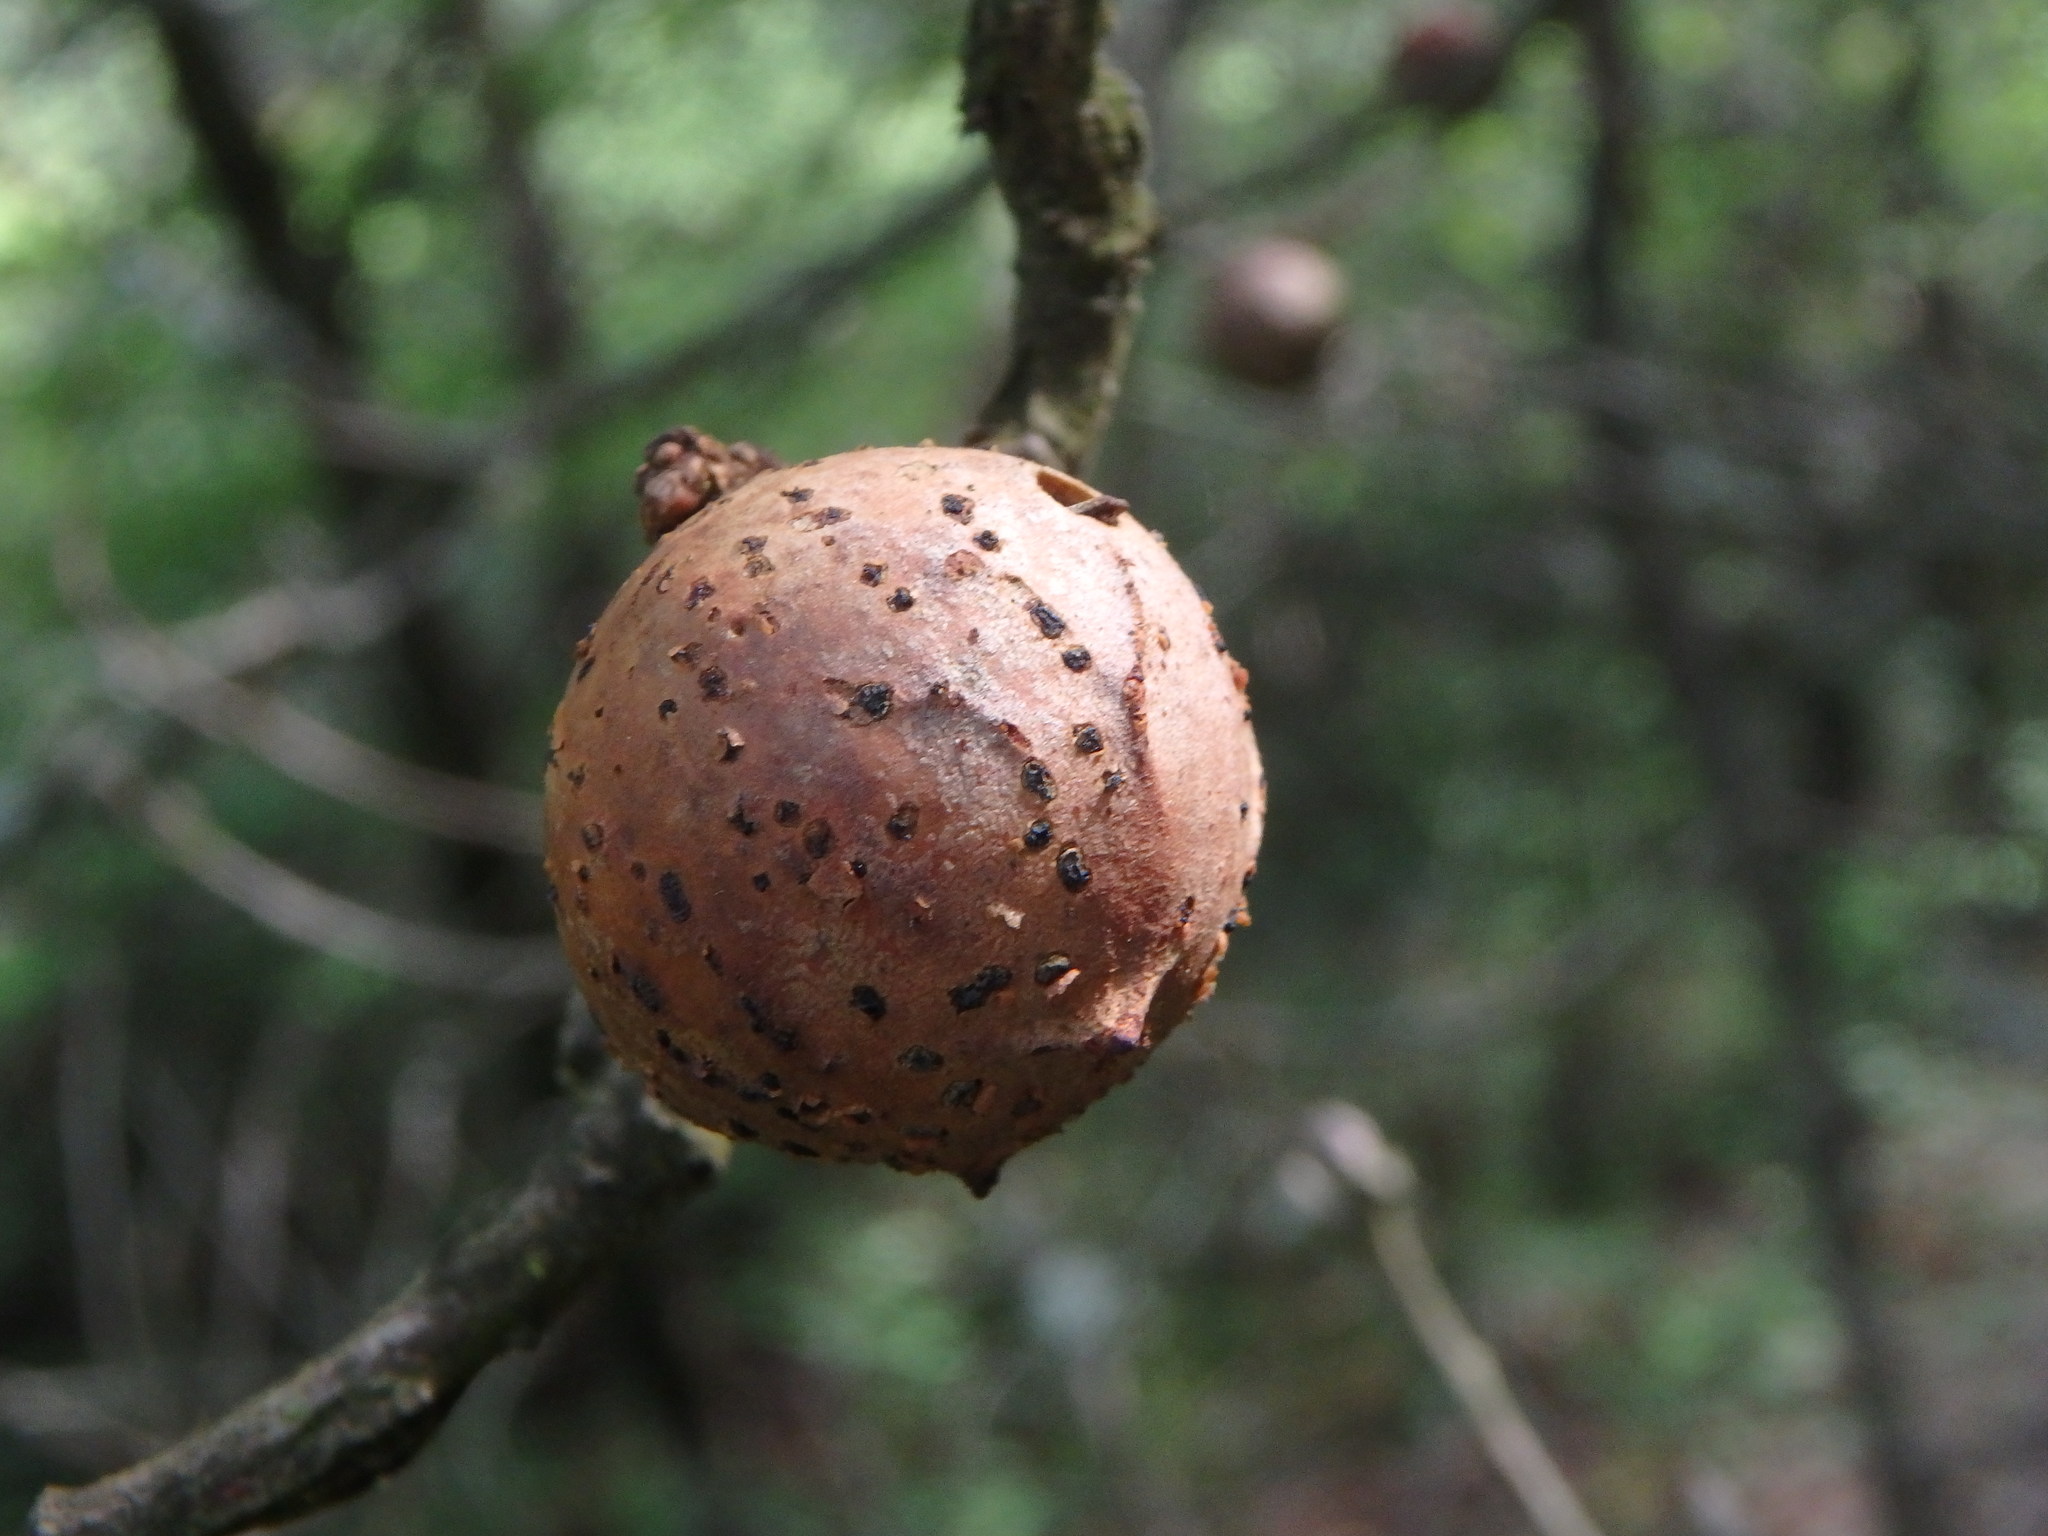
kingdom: Animalia
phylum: Arthropoda
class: Insecta
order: Hymenoptera
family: Cynipidae
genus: Andricus
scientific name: Andricus kollari
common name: Marble gall
